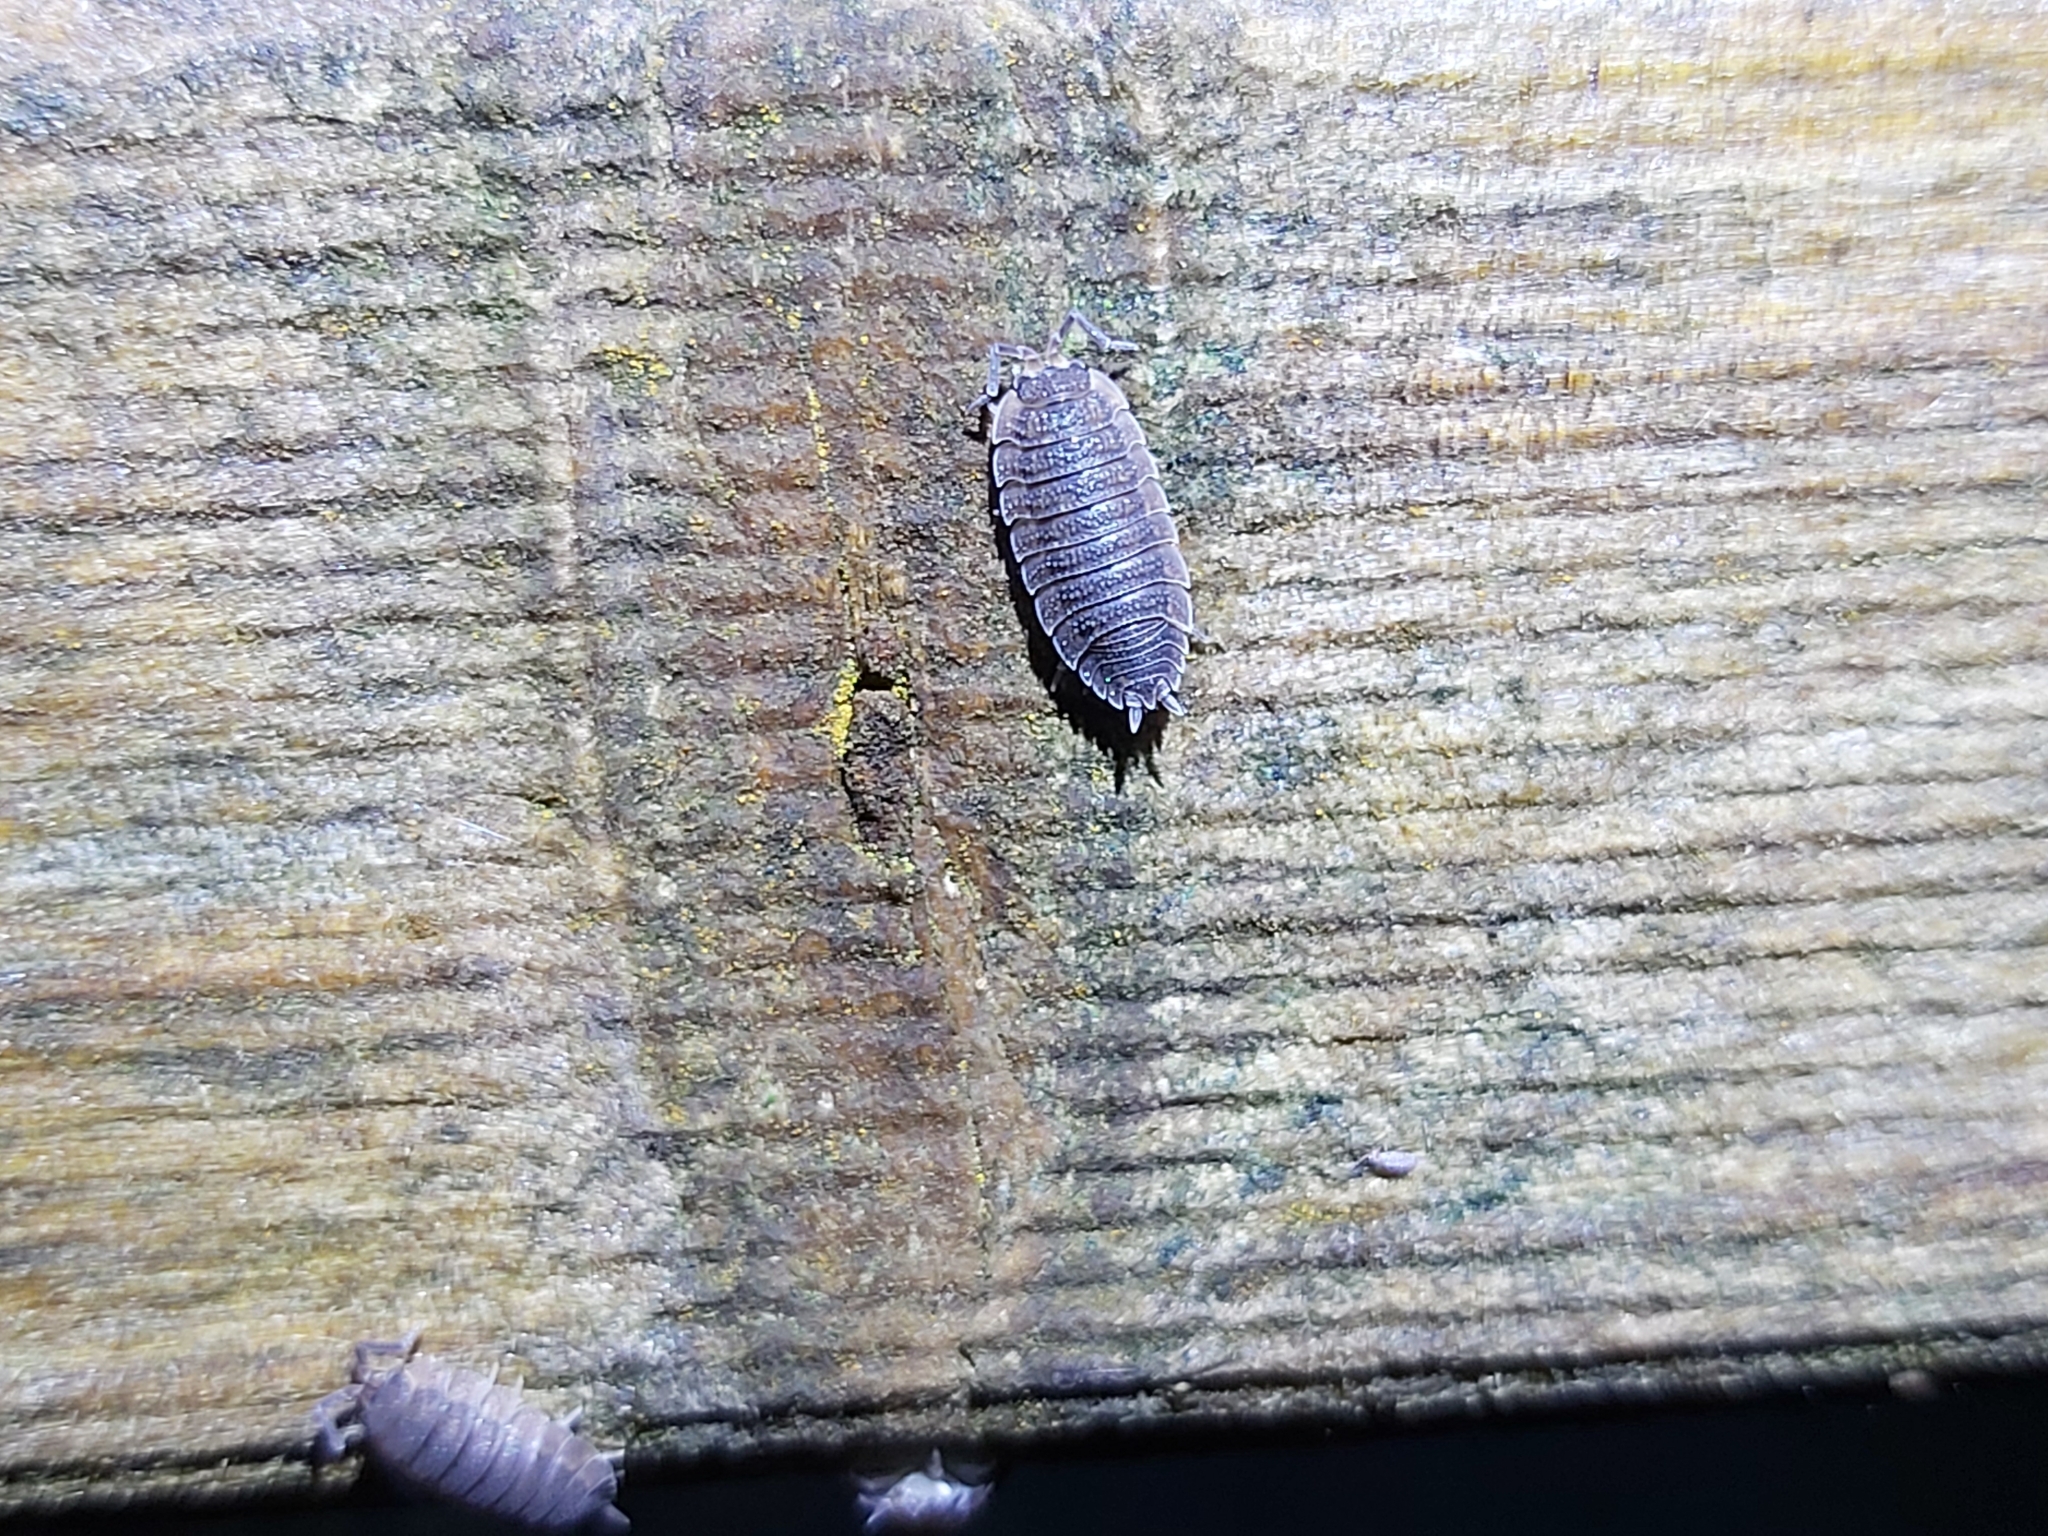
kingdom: Animalia
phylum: Arthropoda
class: Malacostraca
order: Isopoda
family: Porcellionidae
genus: Porcellio
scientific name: Porcellio scaber
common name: Common rough woodlouse
